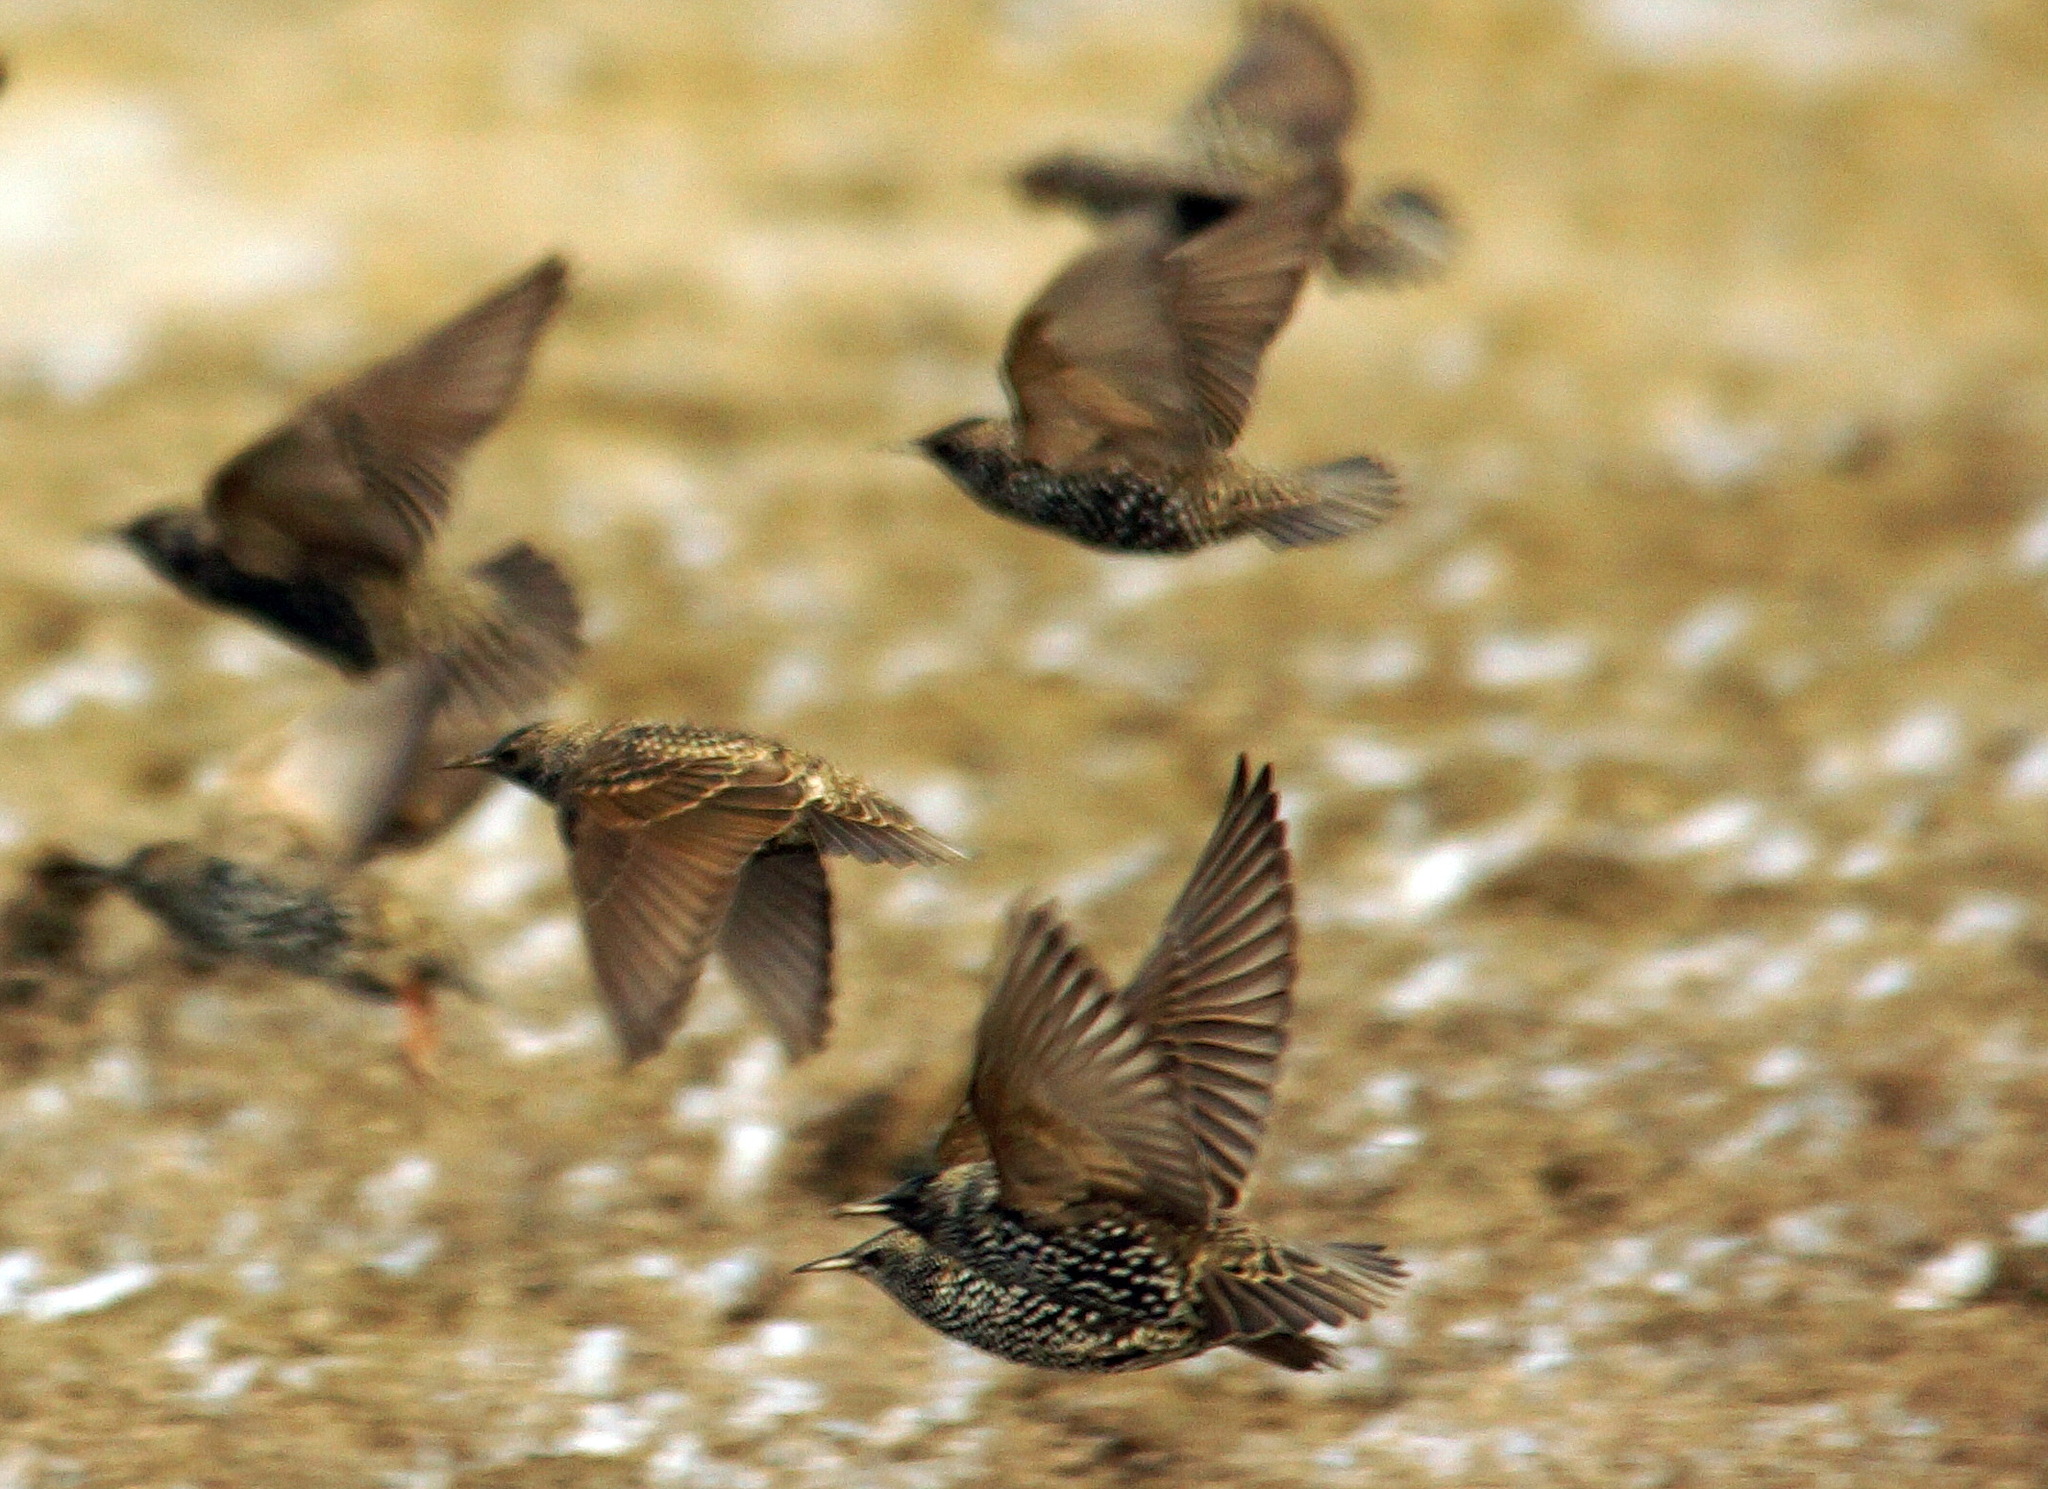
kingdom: Animalia
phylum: Chordata
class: Aves
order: Passeriformes
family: Sturnidae
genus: Sturnus
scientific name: Sturnus vulgaris
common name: Common starling
